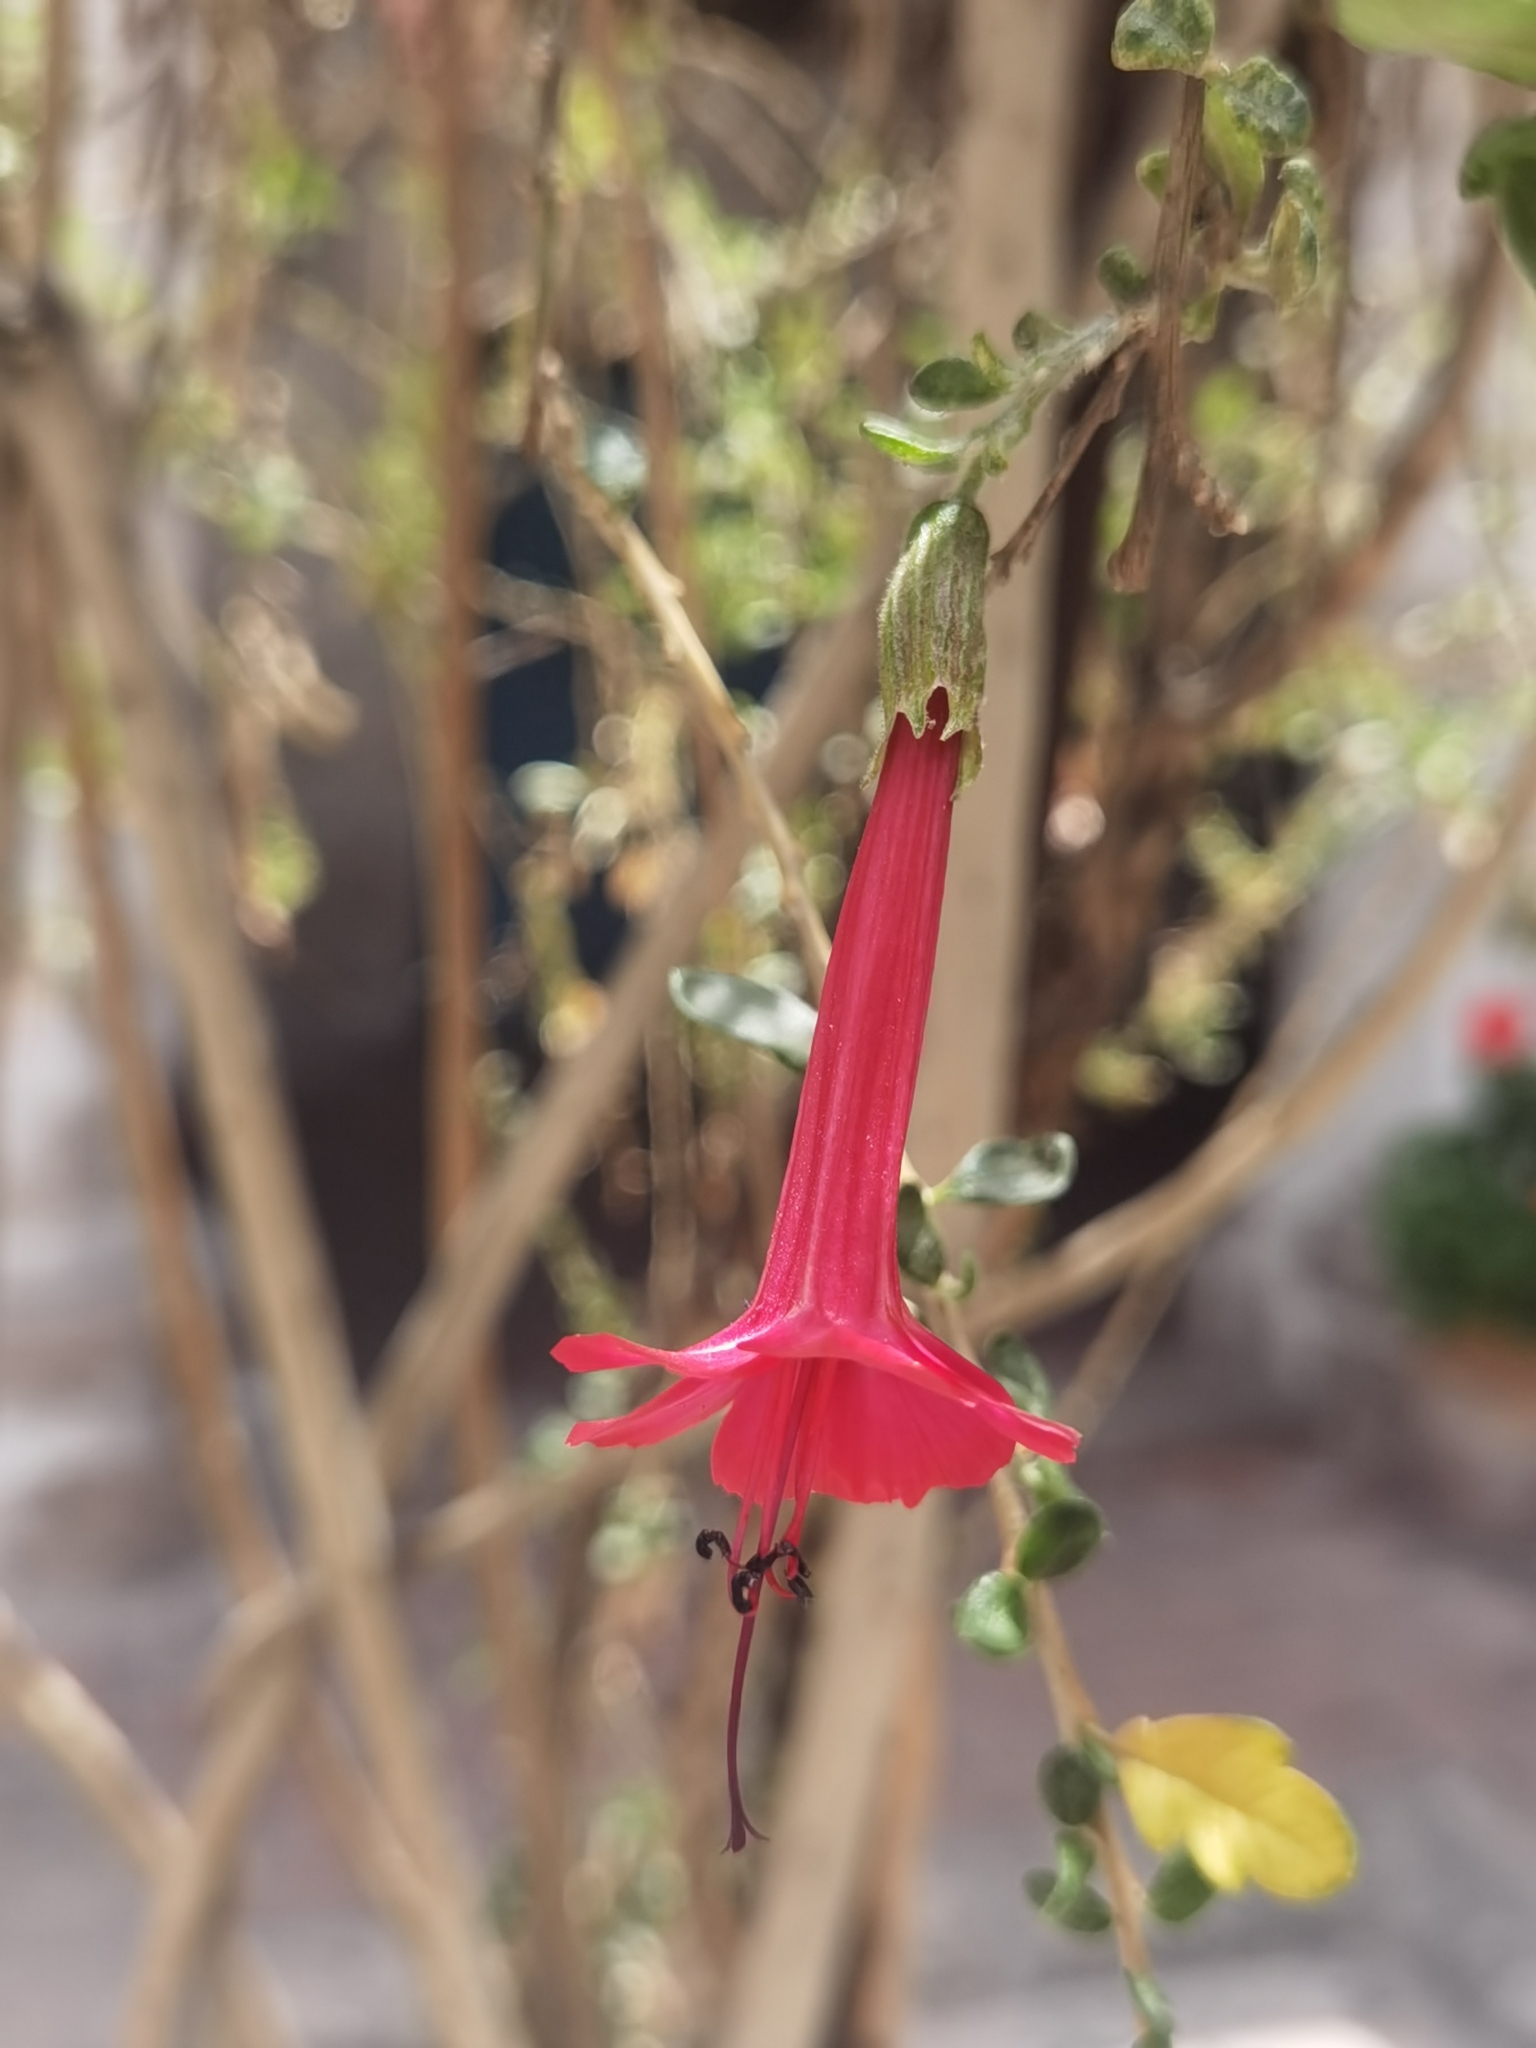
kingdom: Plantae
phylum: Tracheophyta
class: Magnoliopsida
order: Ericales
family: Polemoniaceae
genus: Cantua
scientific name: Cantua buxifolia
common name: Sacred-flower-of-the-incas
